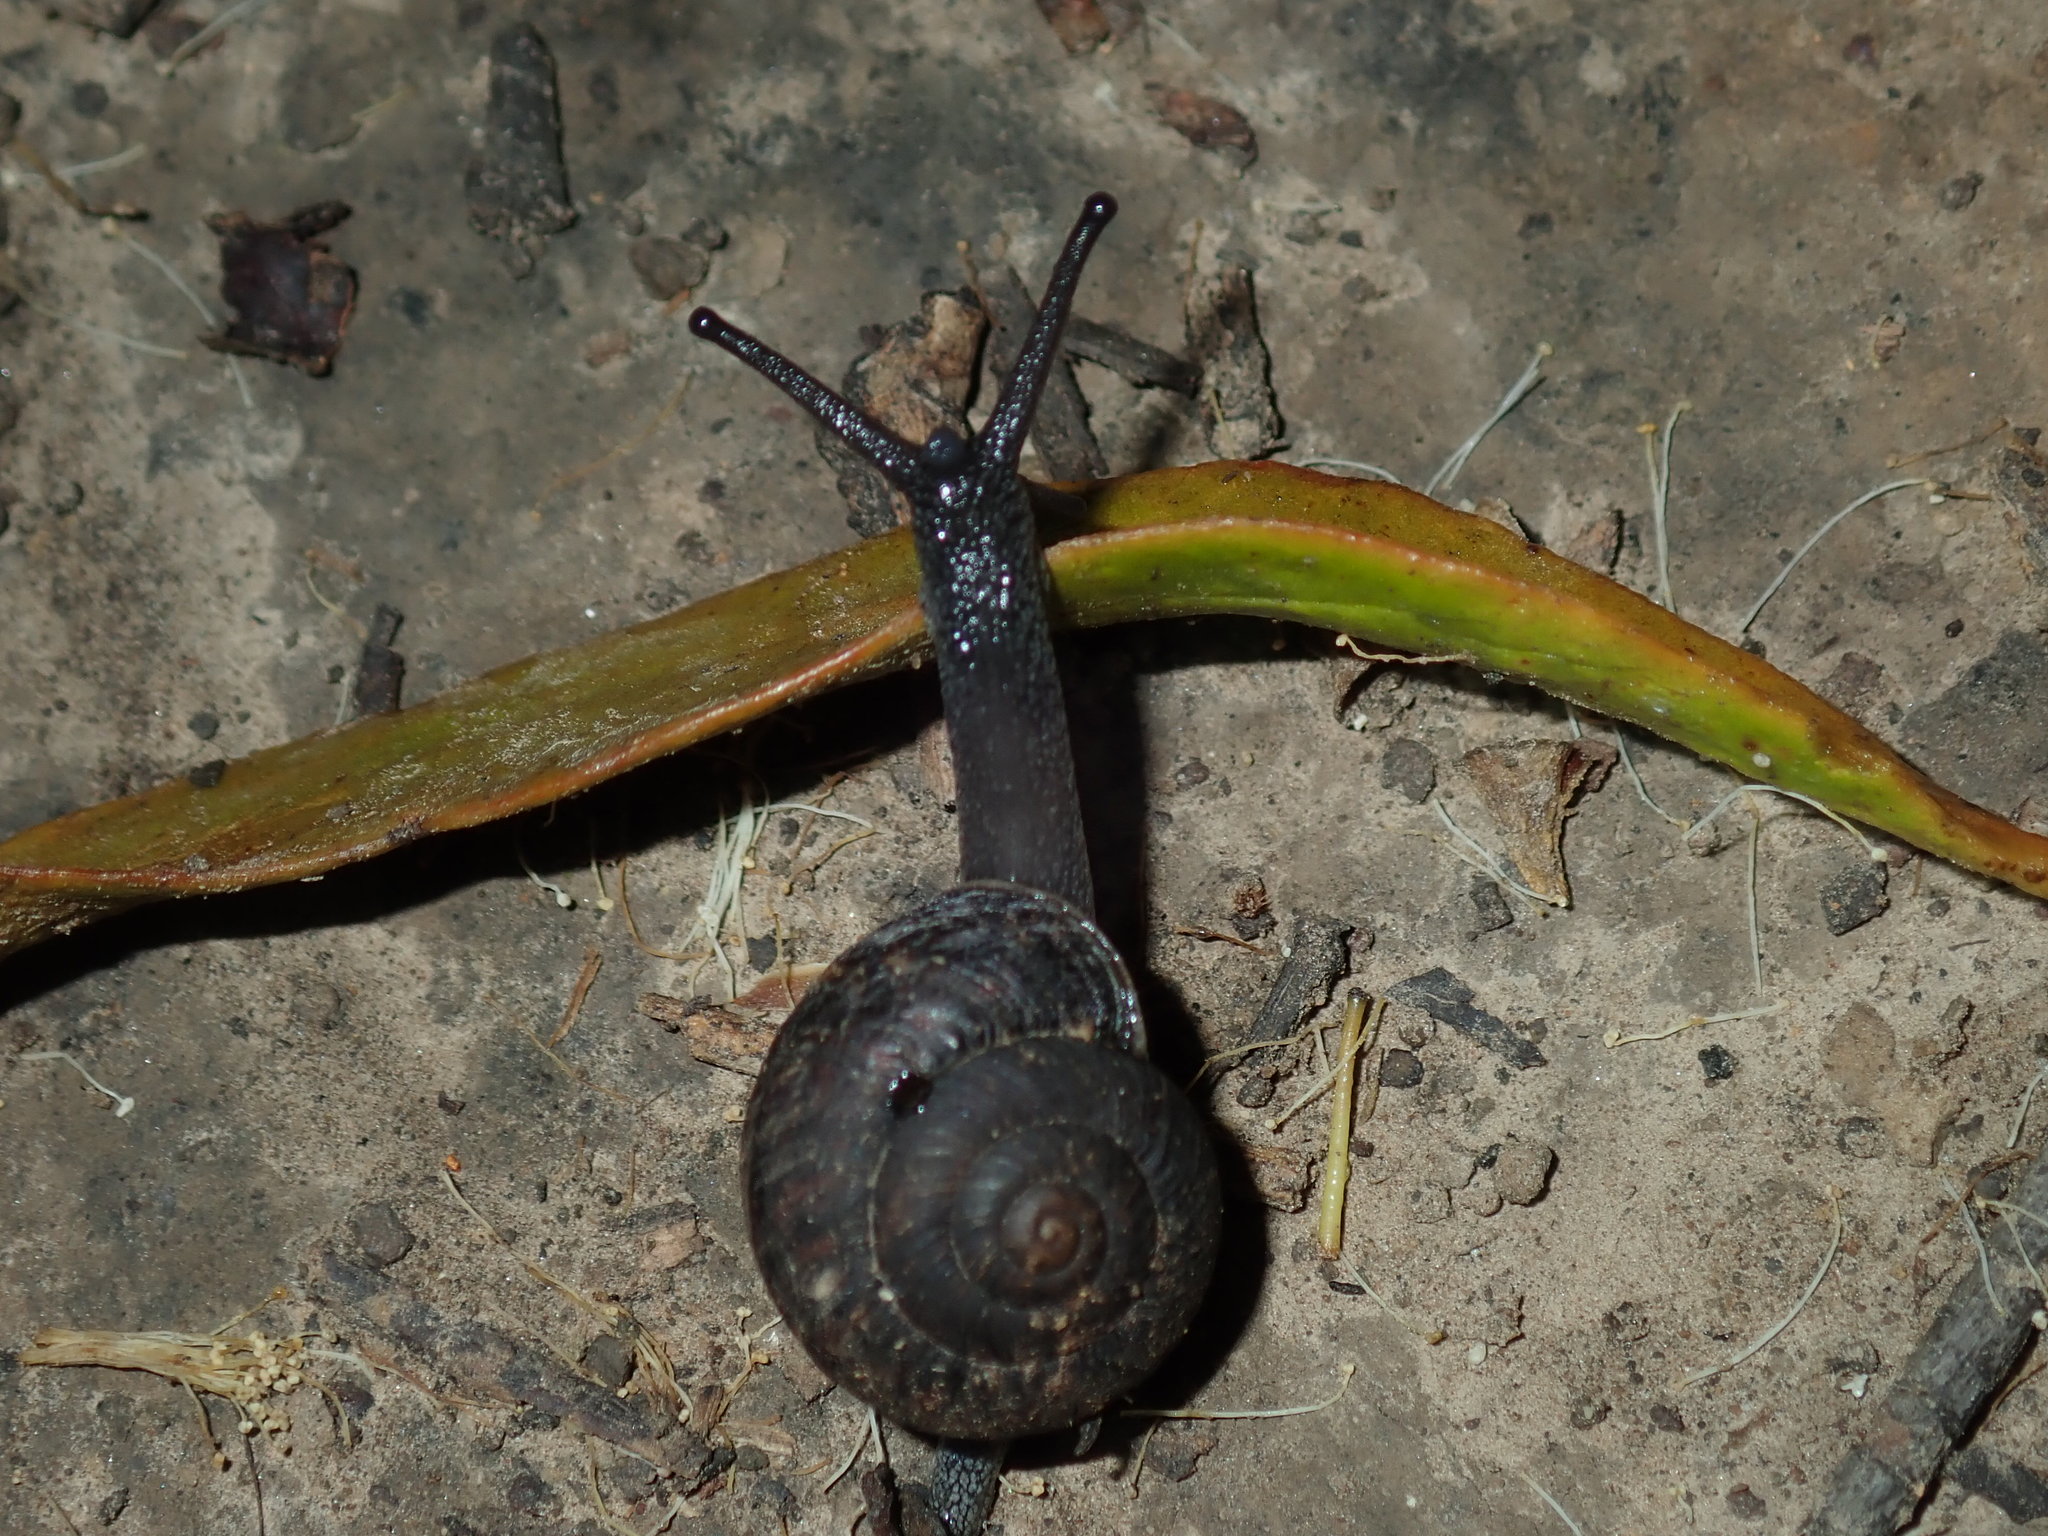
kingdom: Animalia
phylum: Mollusca
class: Gastropoda
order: Stylommatophora
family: Camaenidae
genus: Sauroconcha
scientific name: Sauroconcha sheai
